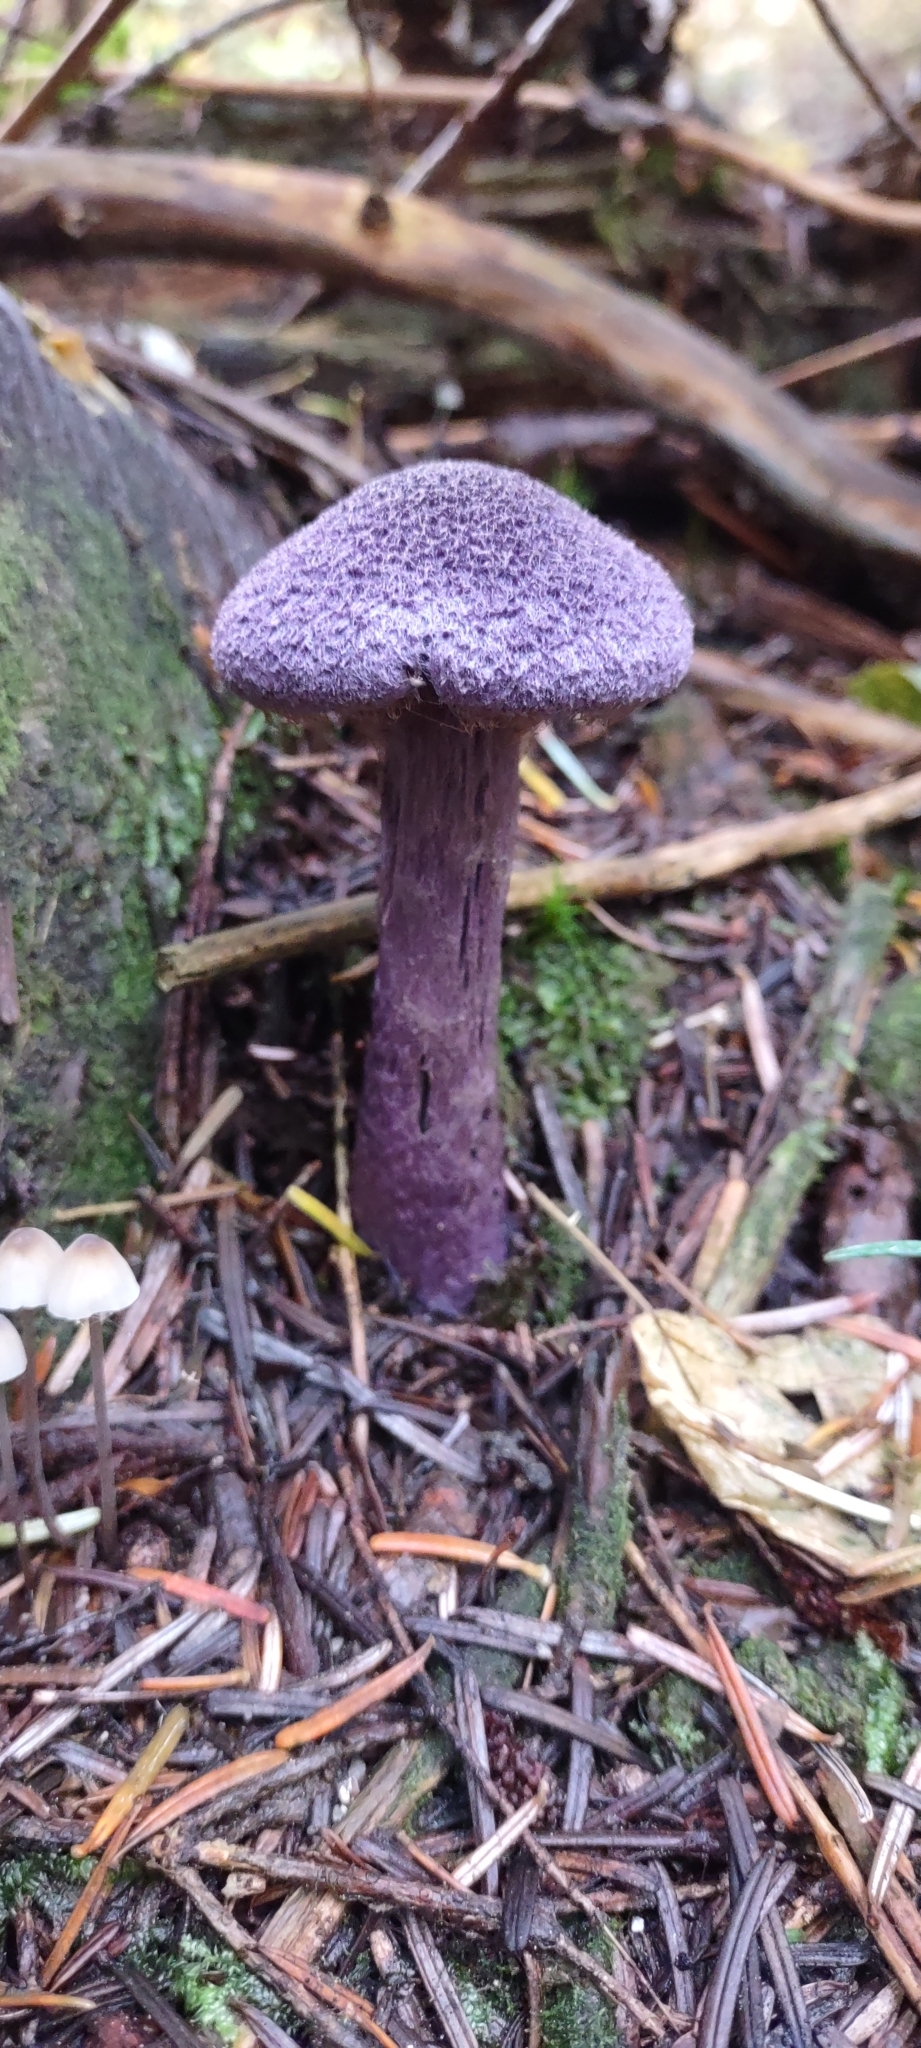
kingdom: Fungi
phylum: Basidiomycota
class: Agaricomycetes
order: Agaricales
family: Cortinariaceae
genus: Cortinarius
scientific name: Cortinarius violaceus
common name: Violet webcap
